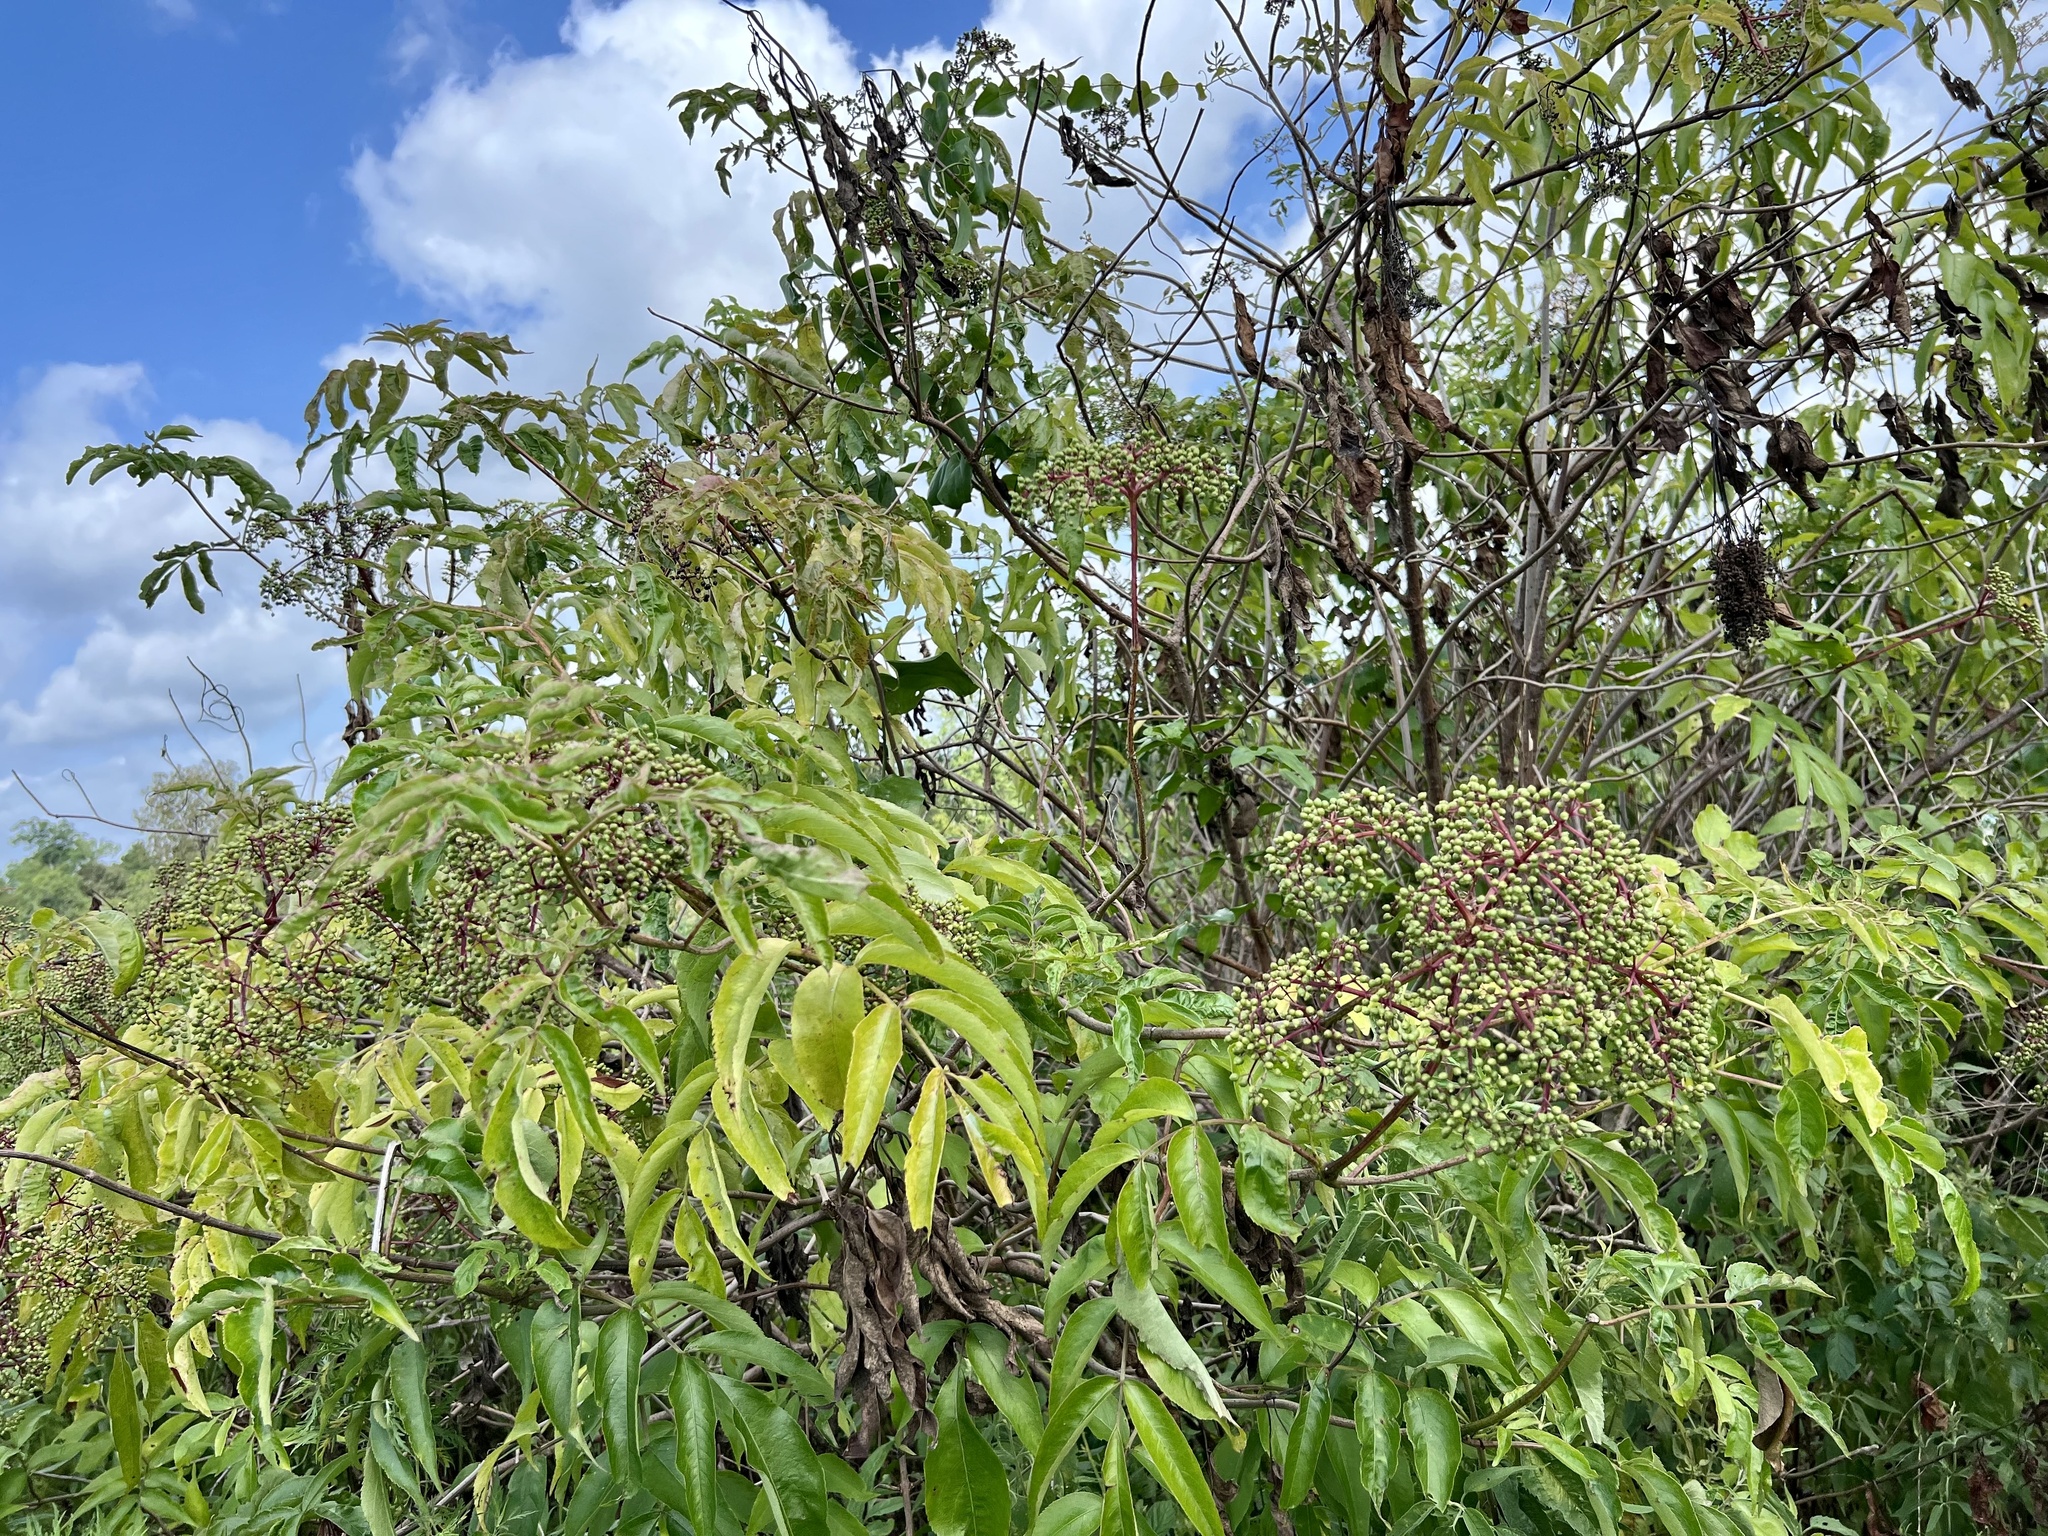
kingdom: Plantae
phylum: Tracheophyta
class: Magnoliopsida
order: Dipsacales
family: Viburnaceae
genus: Sambucus
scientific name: Sambucus canadensis
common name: American elder
